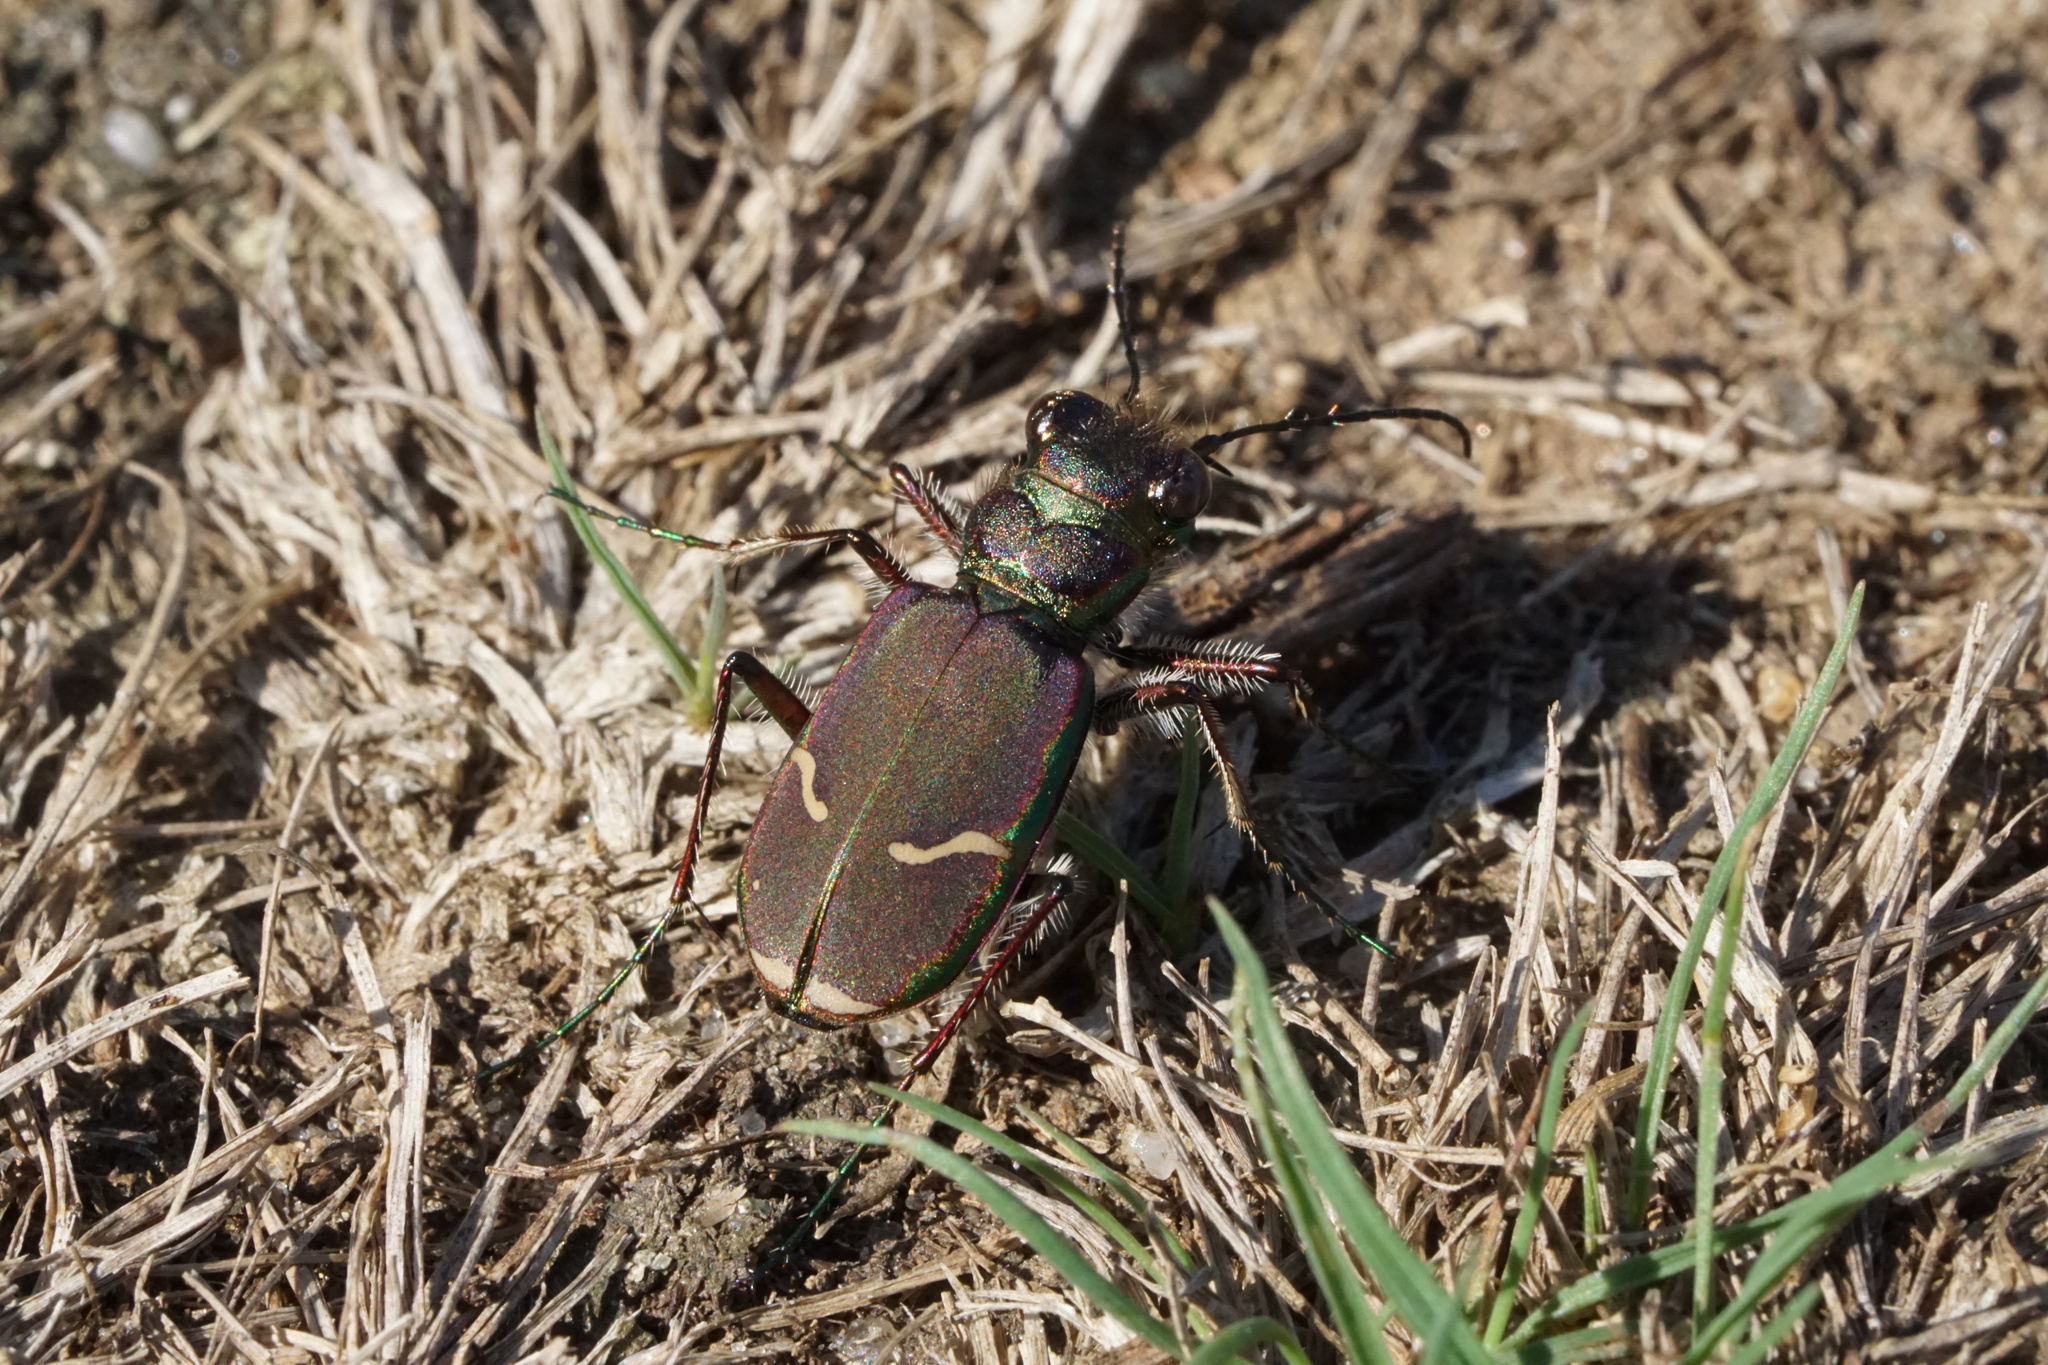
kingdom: Animalia
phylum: Arthropoda
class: Insecta
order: Coleoptera
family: Carabidae
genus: Cicindela
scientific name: Cicindela purpurea
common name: Cow path tiger beetle
